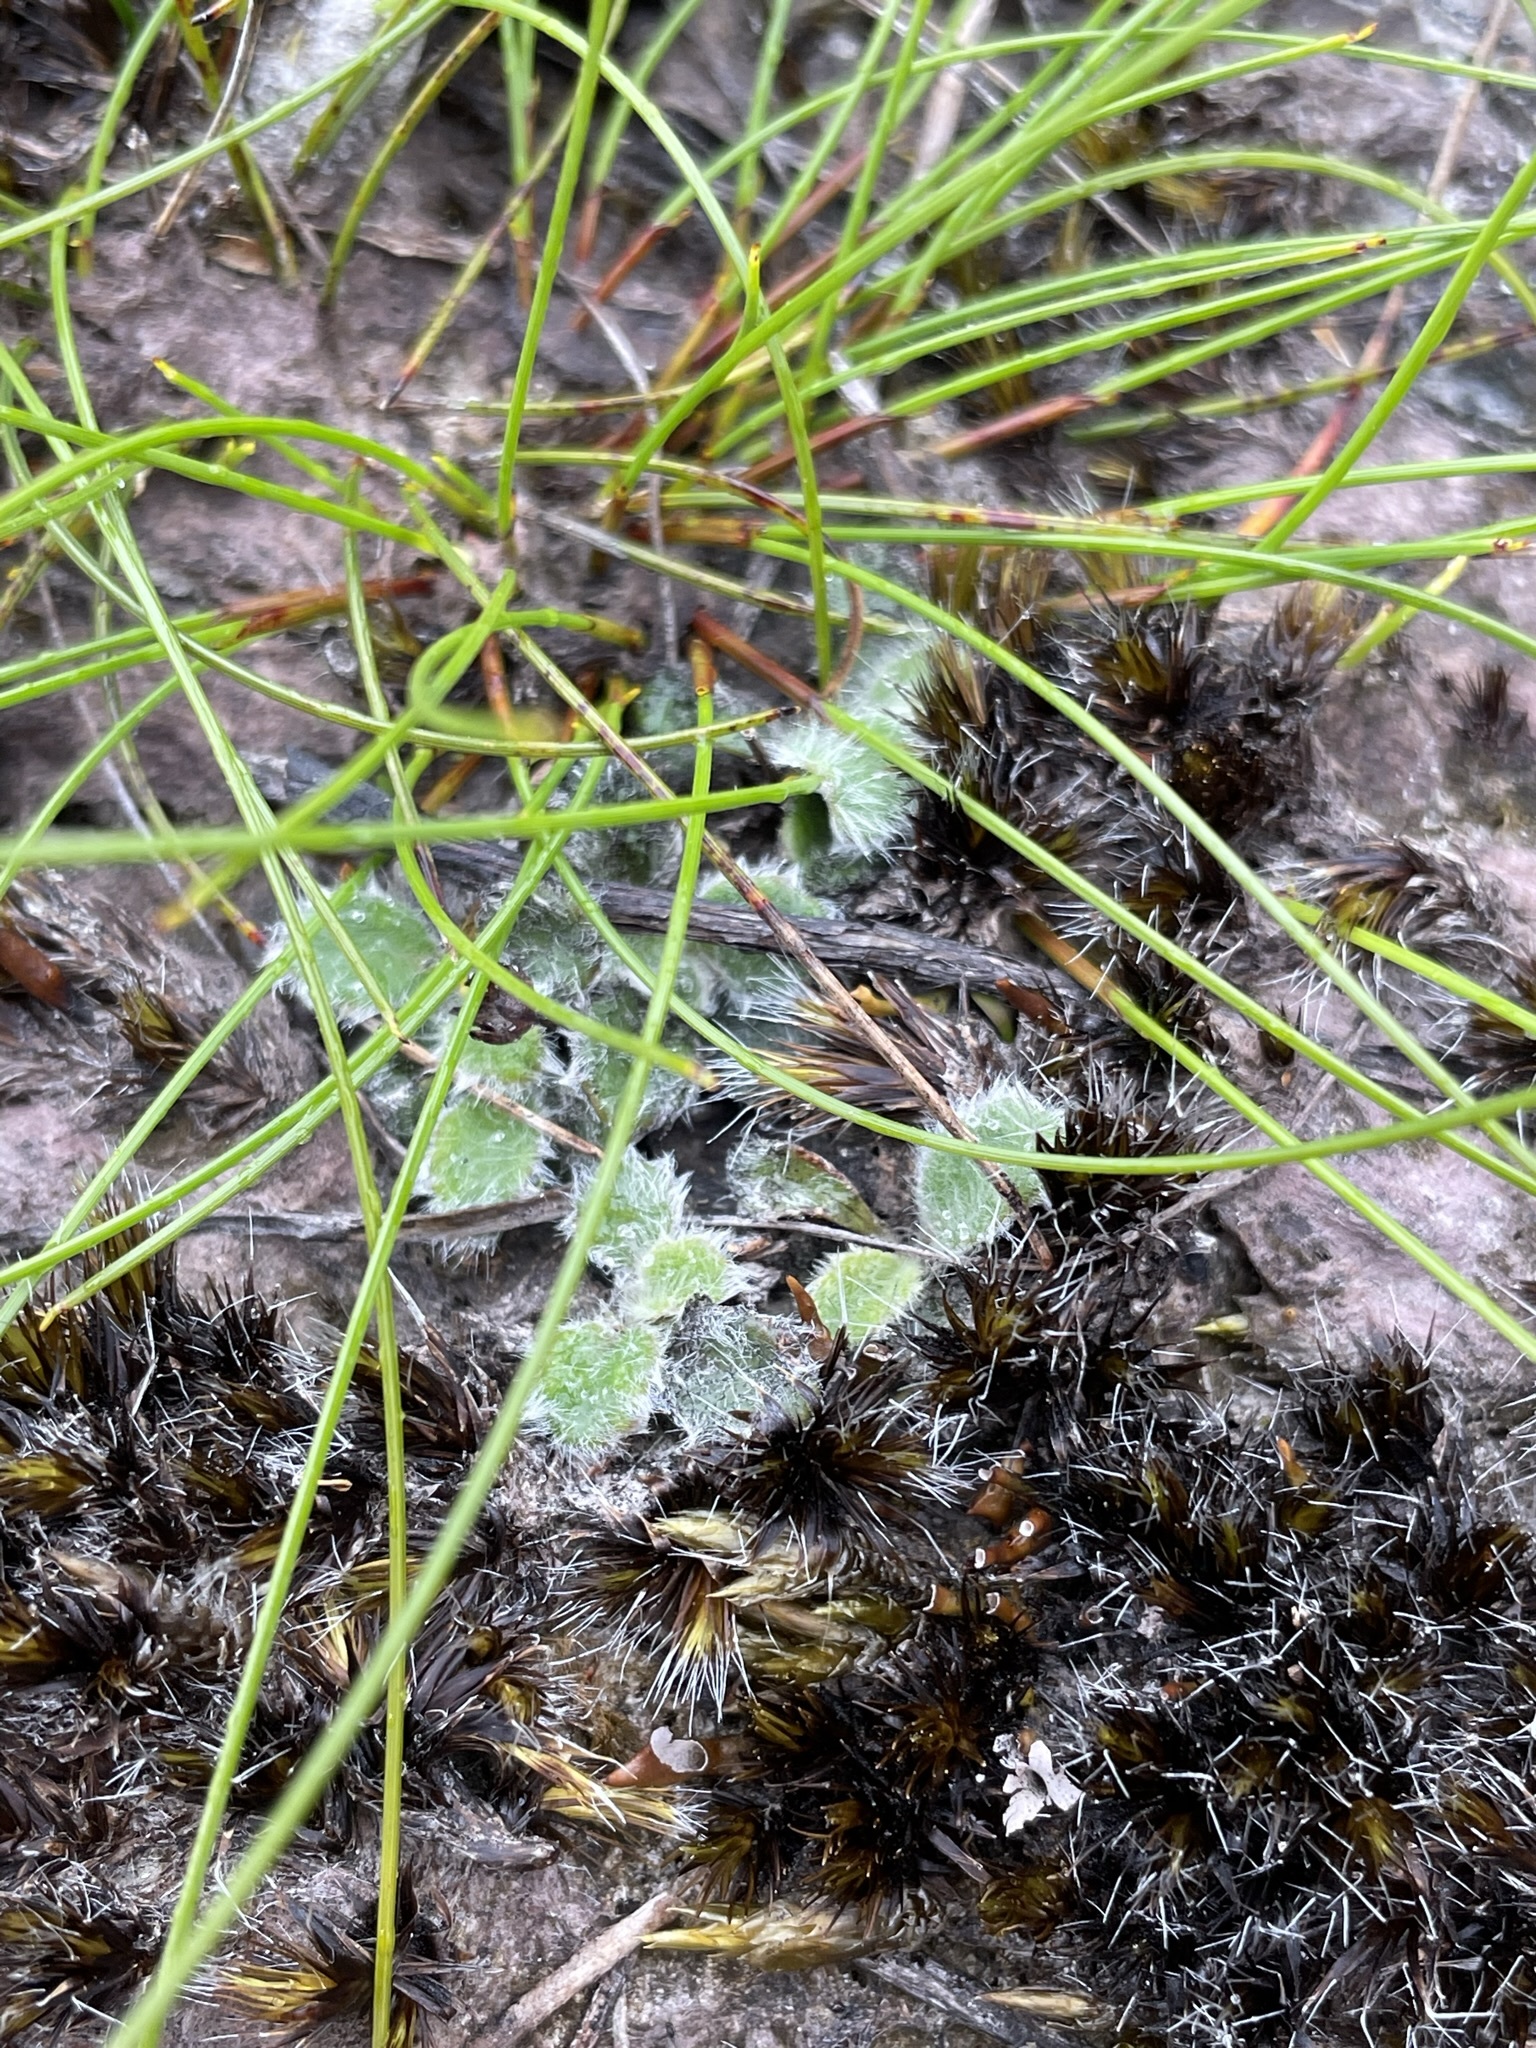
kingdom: Plantae
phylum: Tracheophyta
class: Magnoliopsida
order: Apiales
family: Apiaceae
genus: Actinotus
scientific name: Actinotus bellidioides
